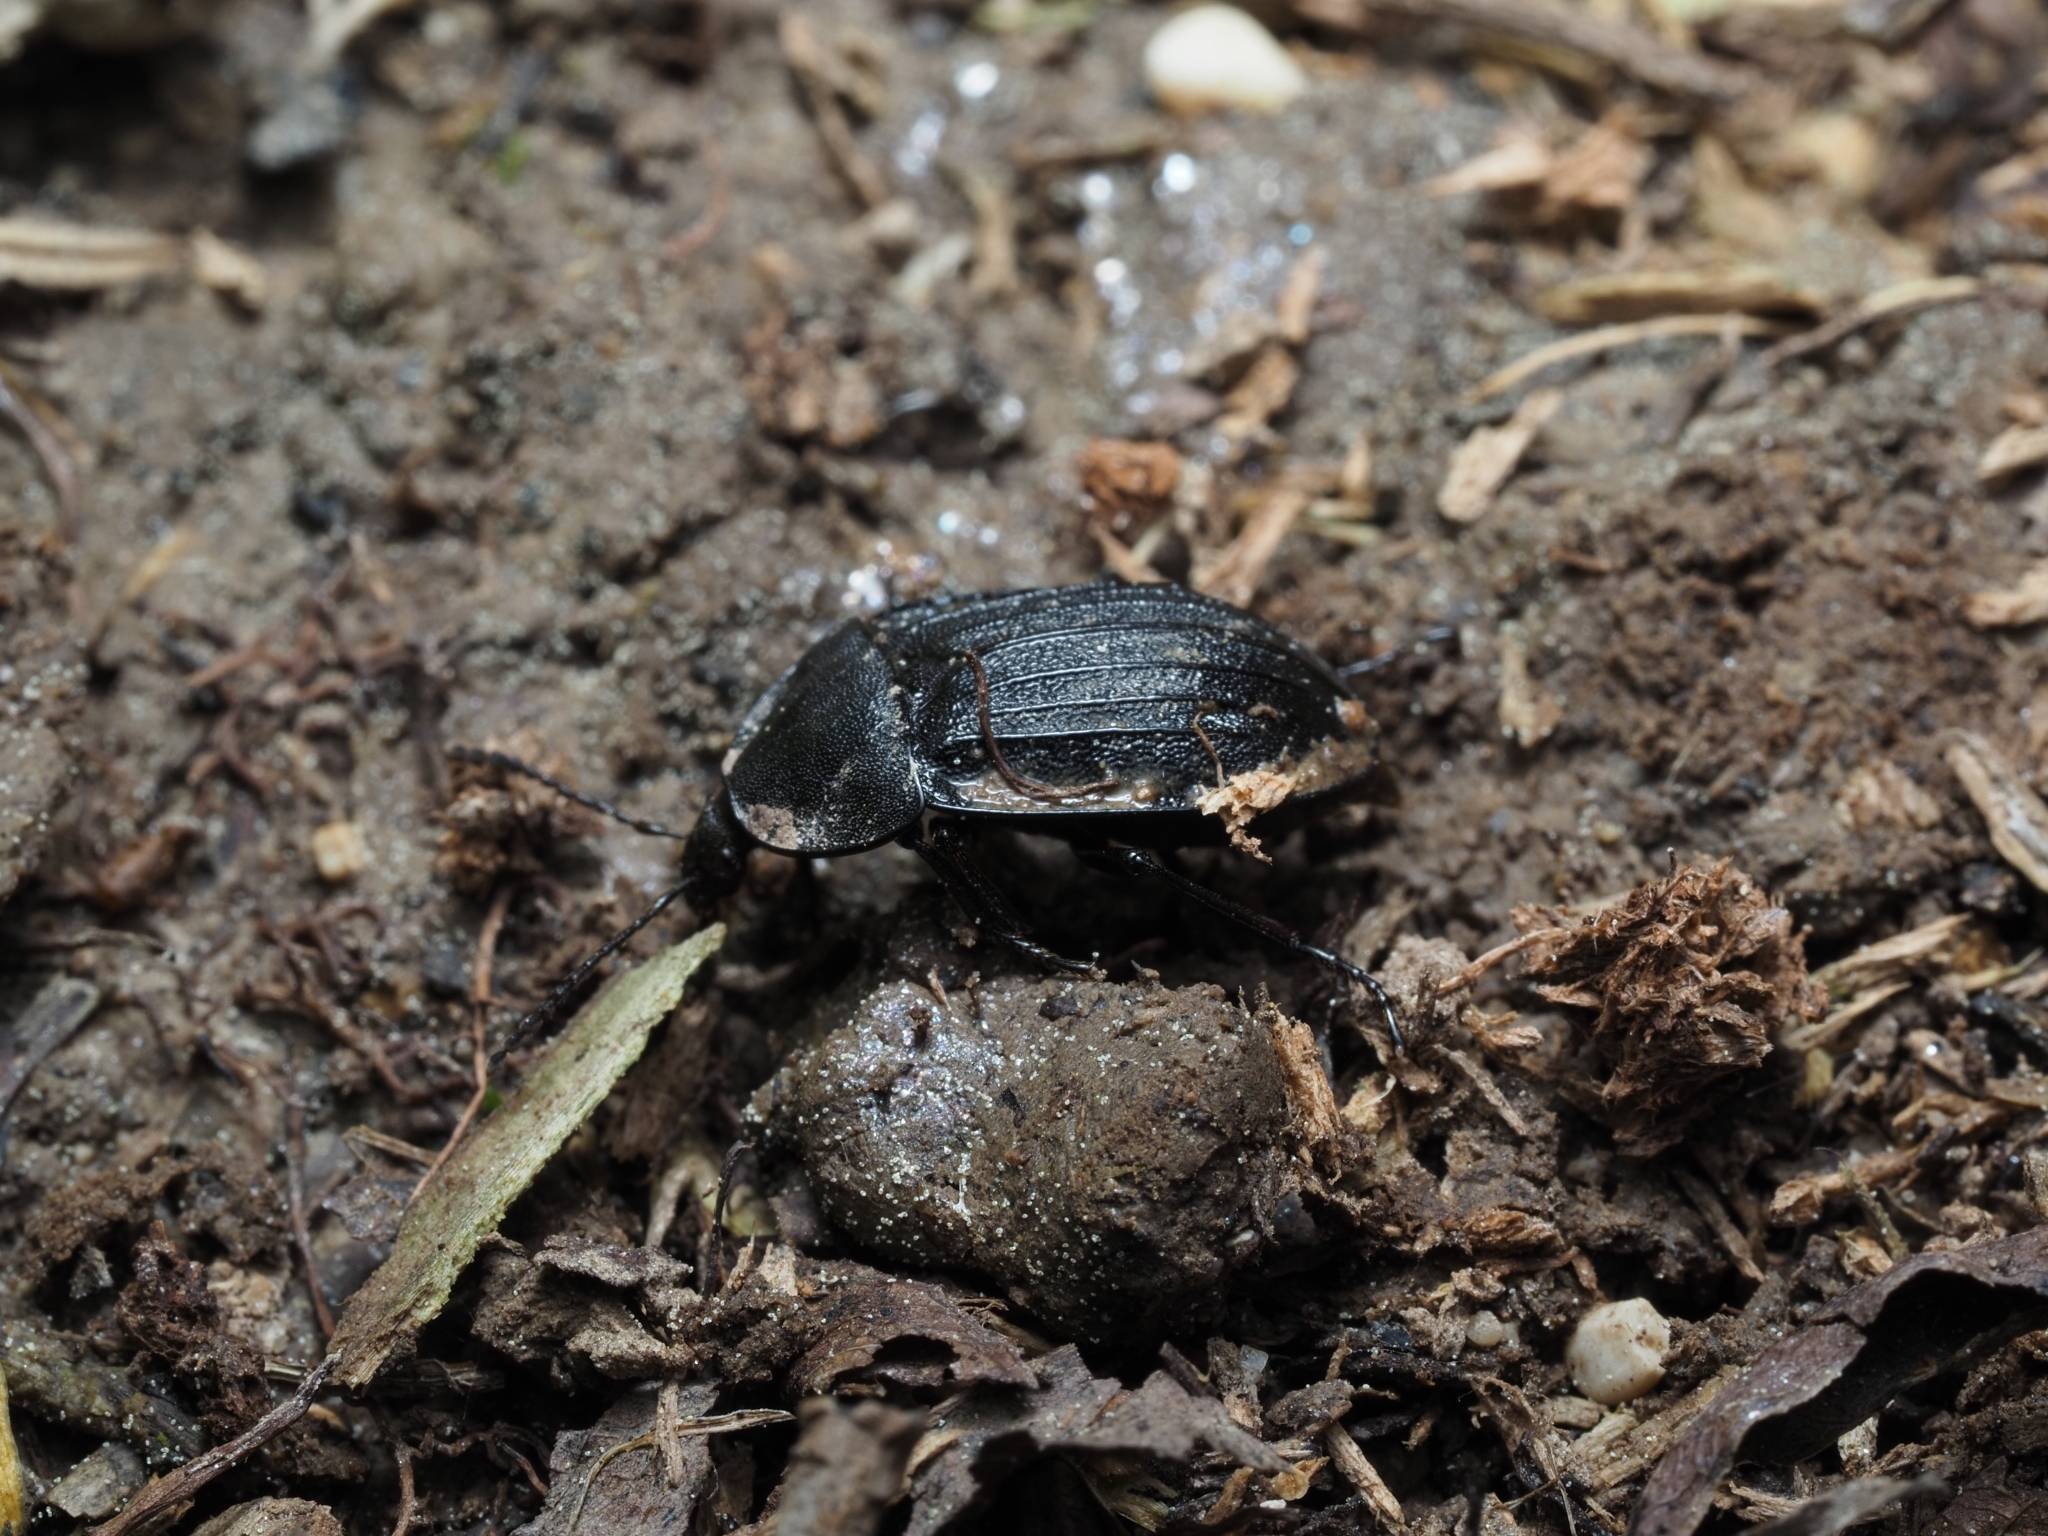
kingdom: Animalia
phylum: Arthropoda
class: Insecta
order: Coleoptera
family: Staphylinidae
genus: Silpha
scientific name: Silpha atrata
